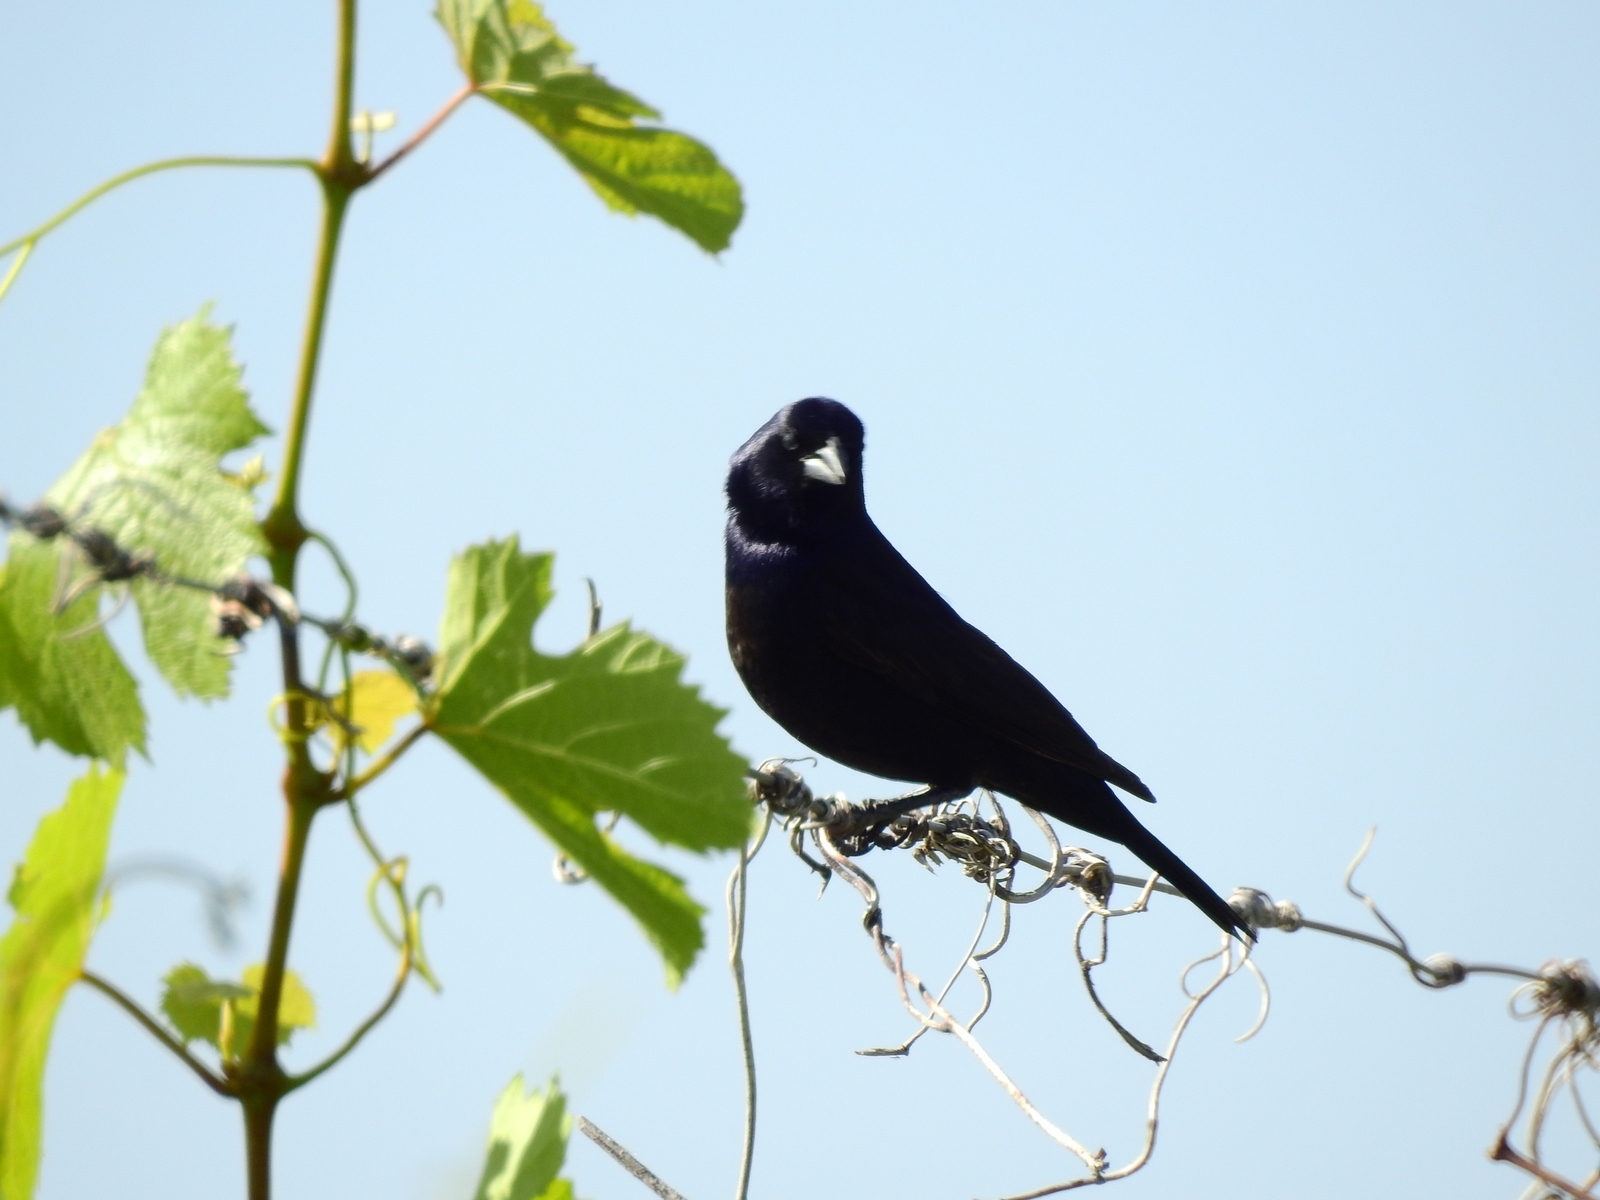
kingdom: Animalia
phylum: Chordata
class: Aves
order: Passeriformes
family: Icteridae
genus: Molothrus
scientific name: Molothrus bonariensis
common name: Shiny cowbird
